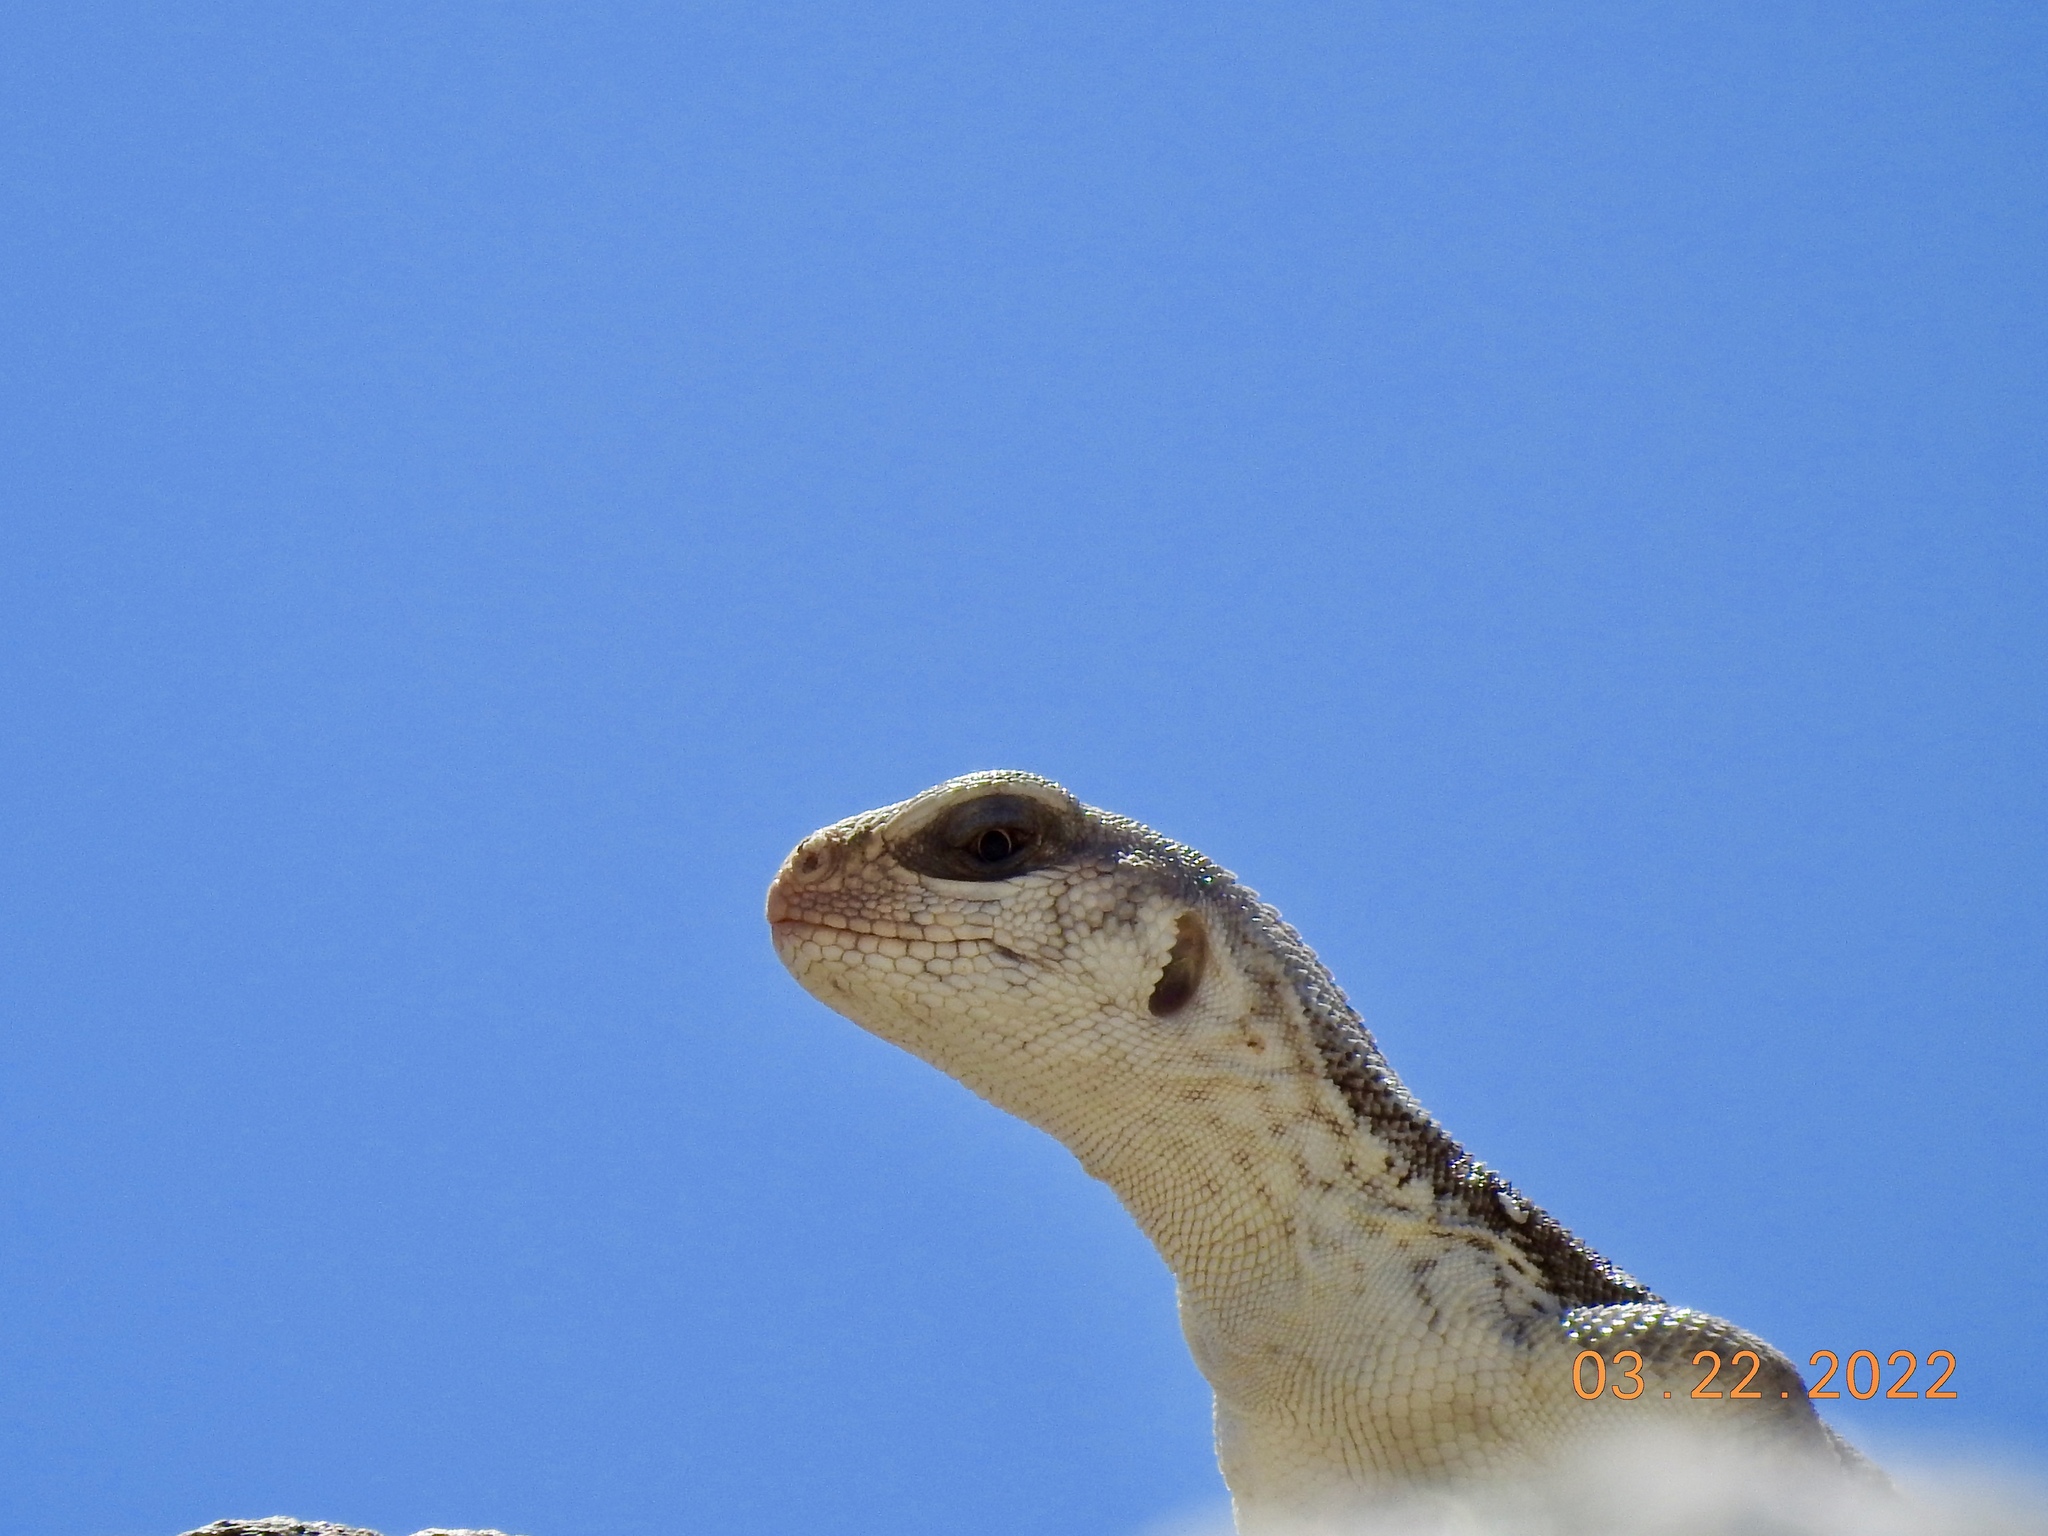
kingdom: Animalia
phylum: Chordata
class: Squamata
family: Iguanidae
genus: Dipsosaurus
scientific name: Dipsosaurus dorsalis
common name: Desert iguana
